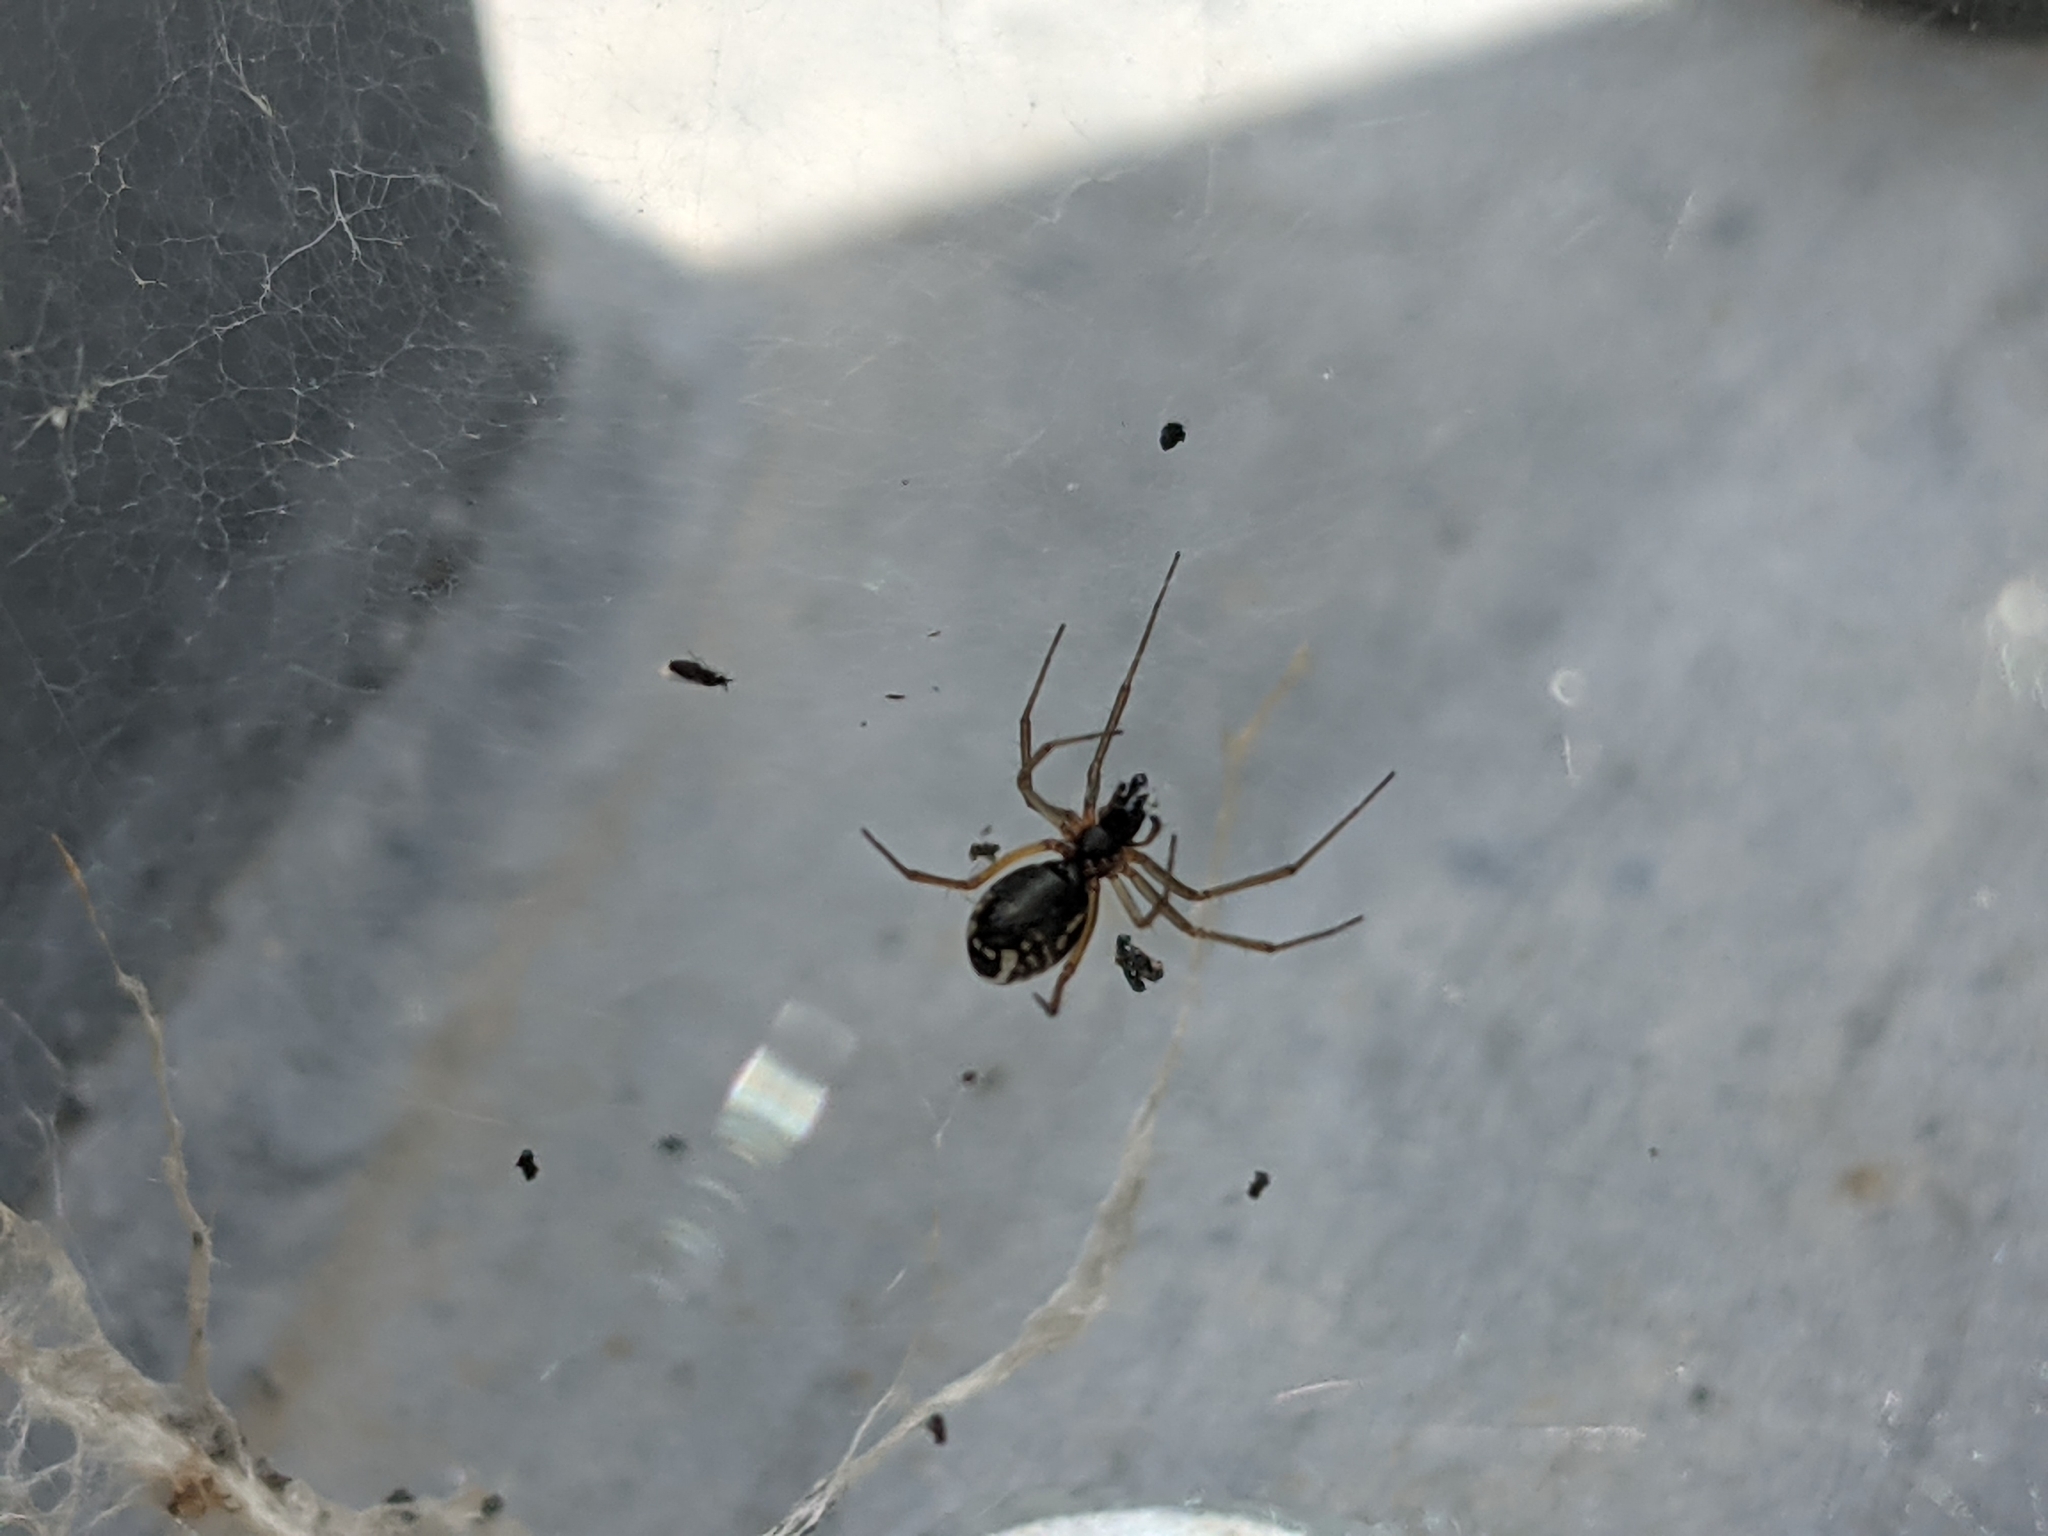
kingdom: Animalia
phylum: Arthropoda
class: Arachnida
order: Araneae
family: Linyphiidae
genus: Frontinellina
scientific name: Frontinellina frutetorum
